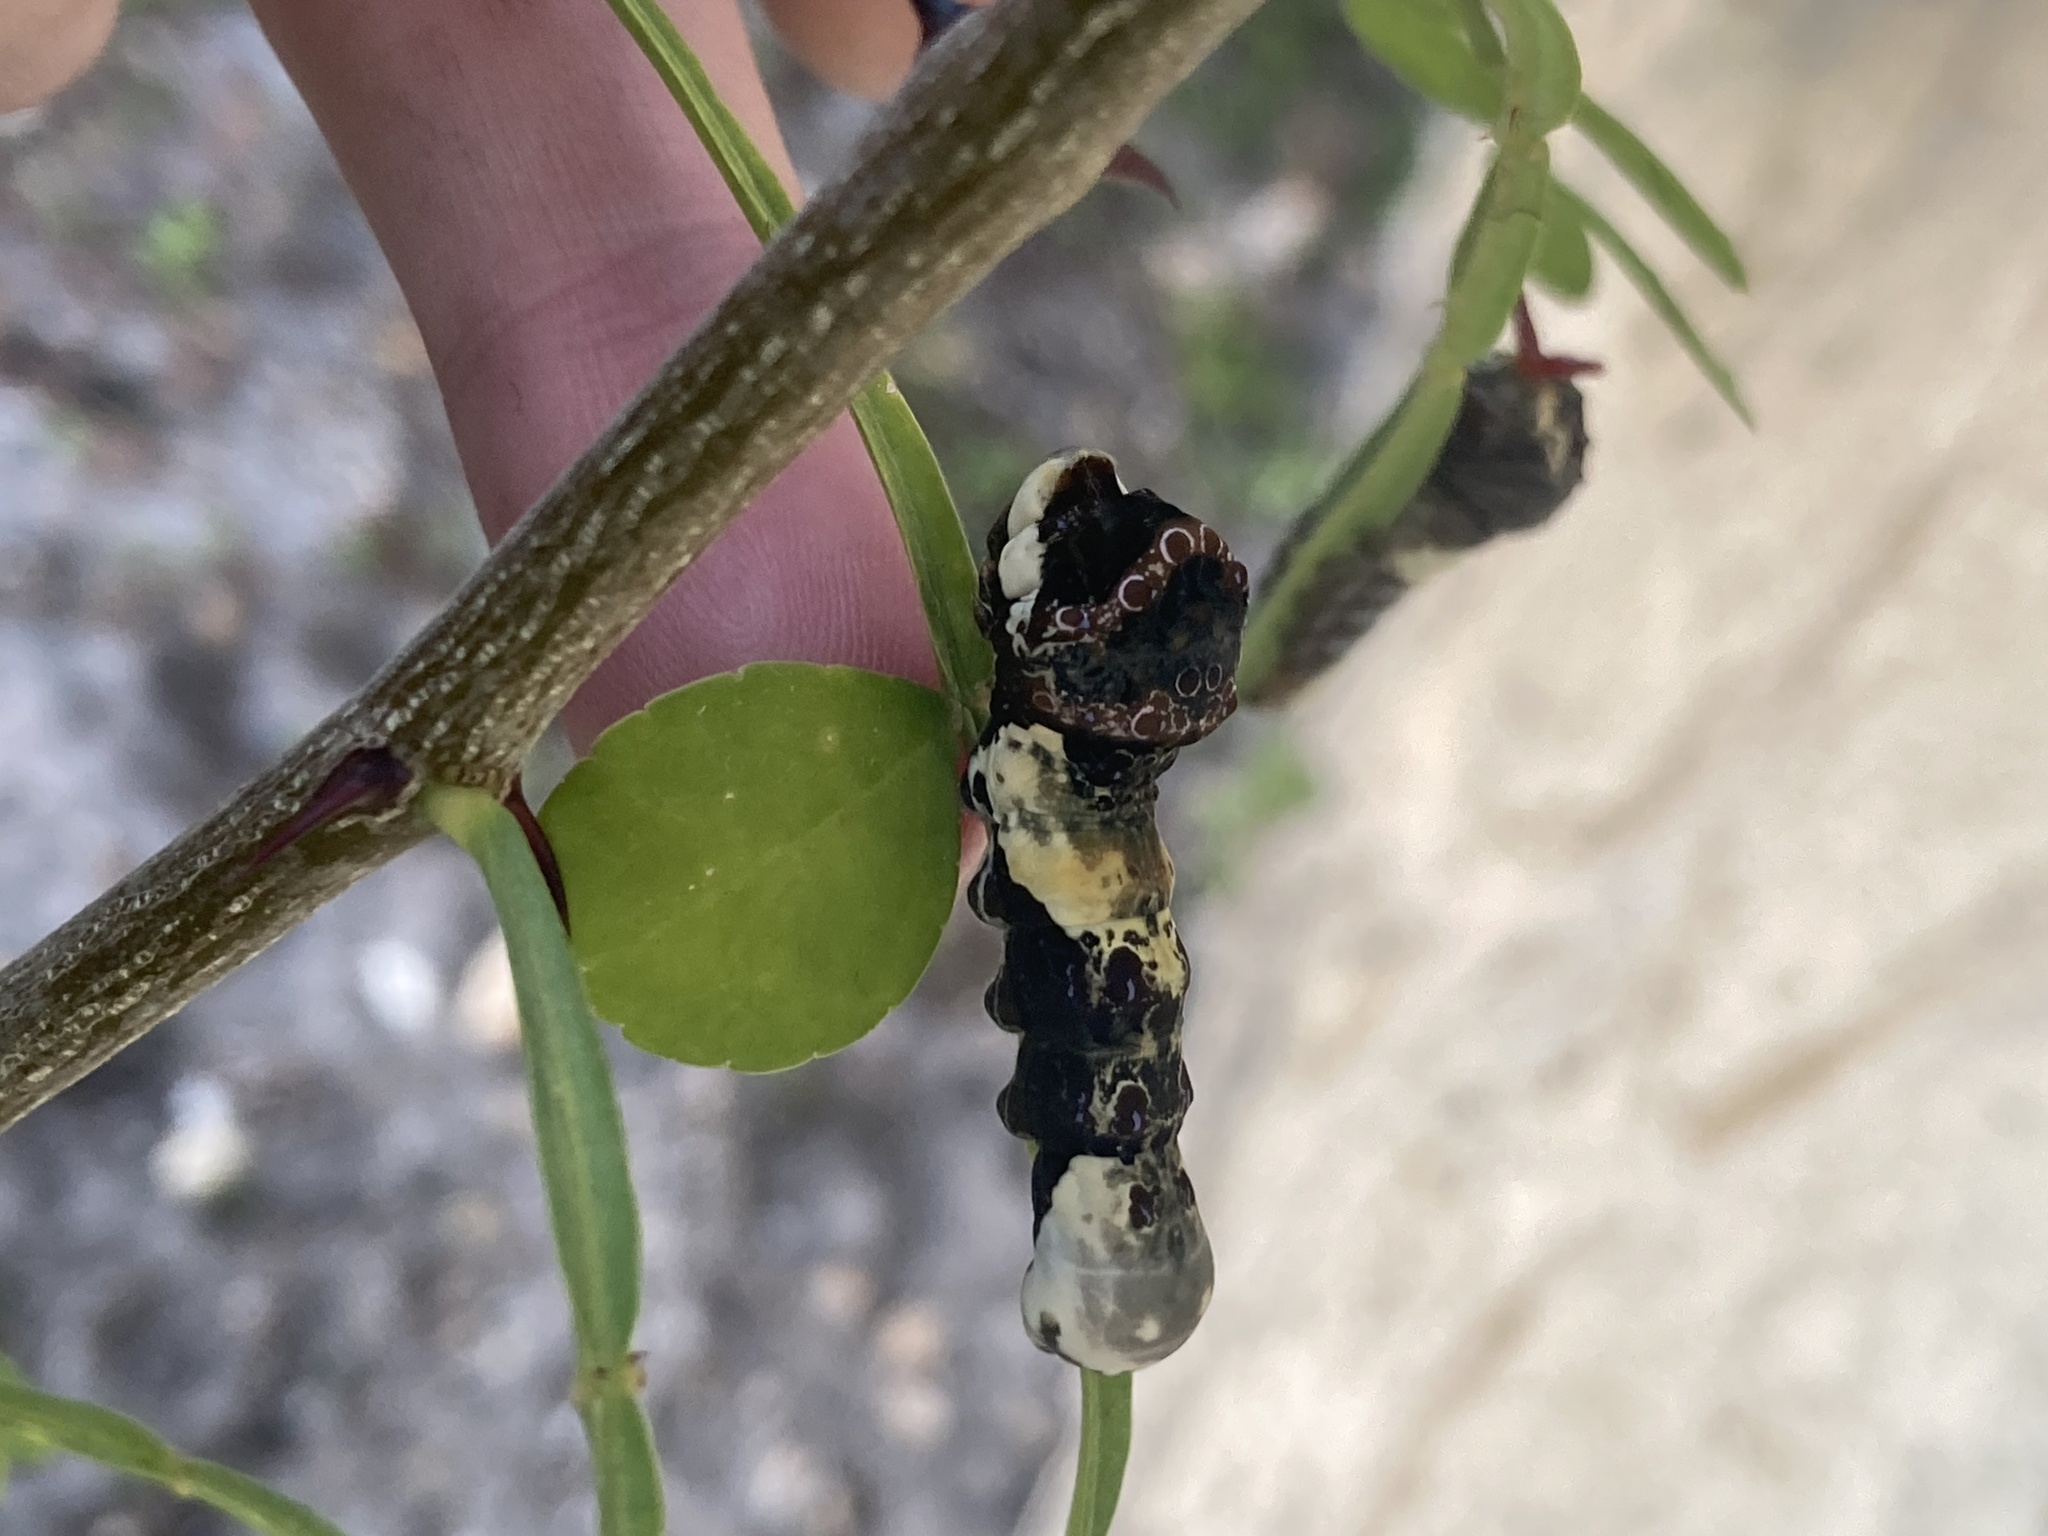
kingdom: Animalia
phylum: Arthropoda
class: Insecta
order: Lepidoptera
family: Papilionidae
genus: Papilio
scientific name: Papilio cresphontes
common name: Giant swallowtail
